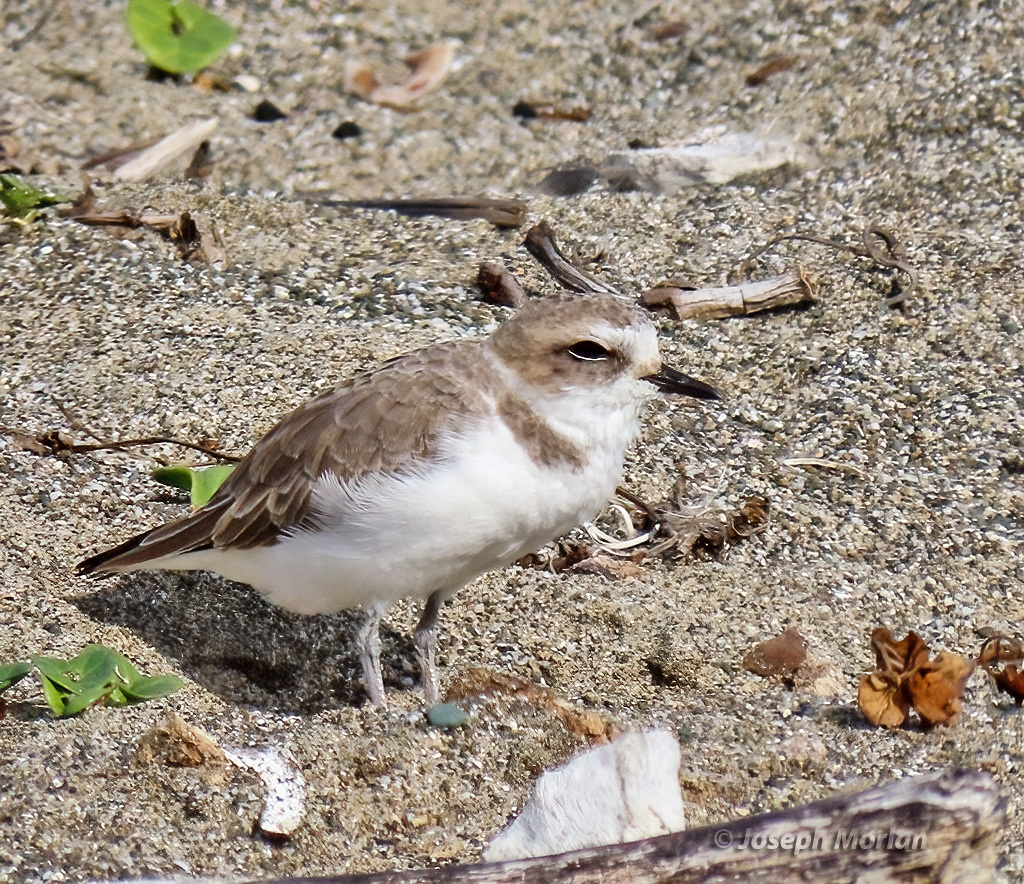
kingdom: Animalia
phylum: Chordata
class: Aves
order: Charadriiformes
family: Charadriidae
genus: Anarhynchus
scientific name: Anarhynchus
